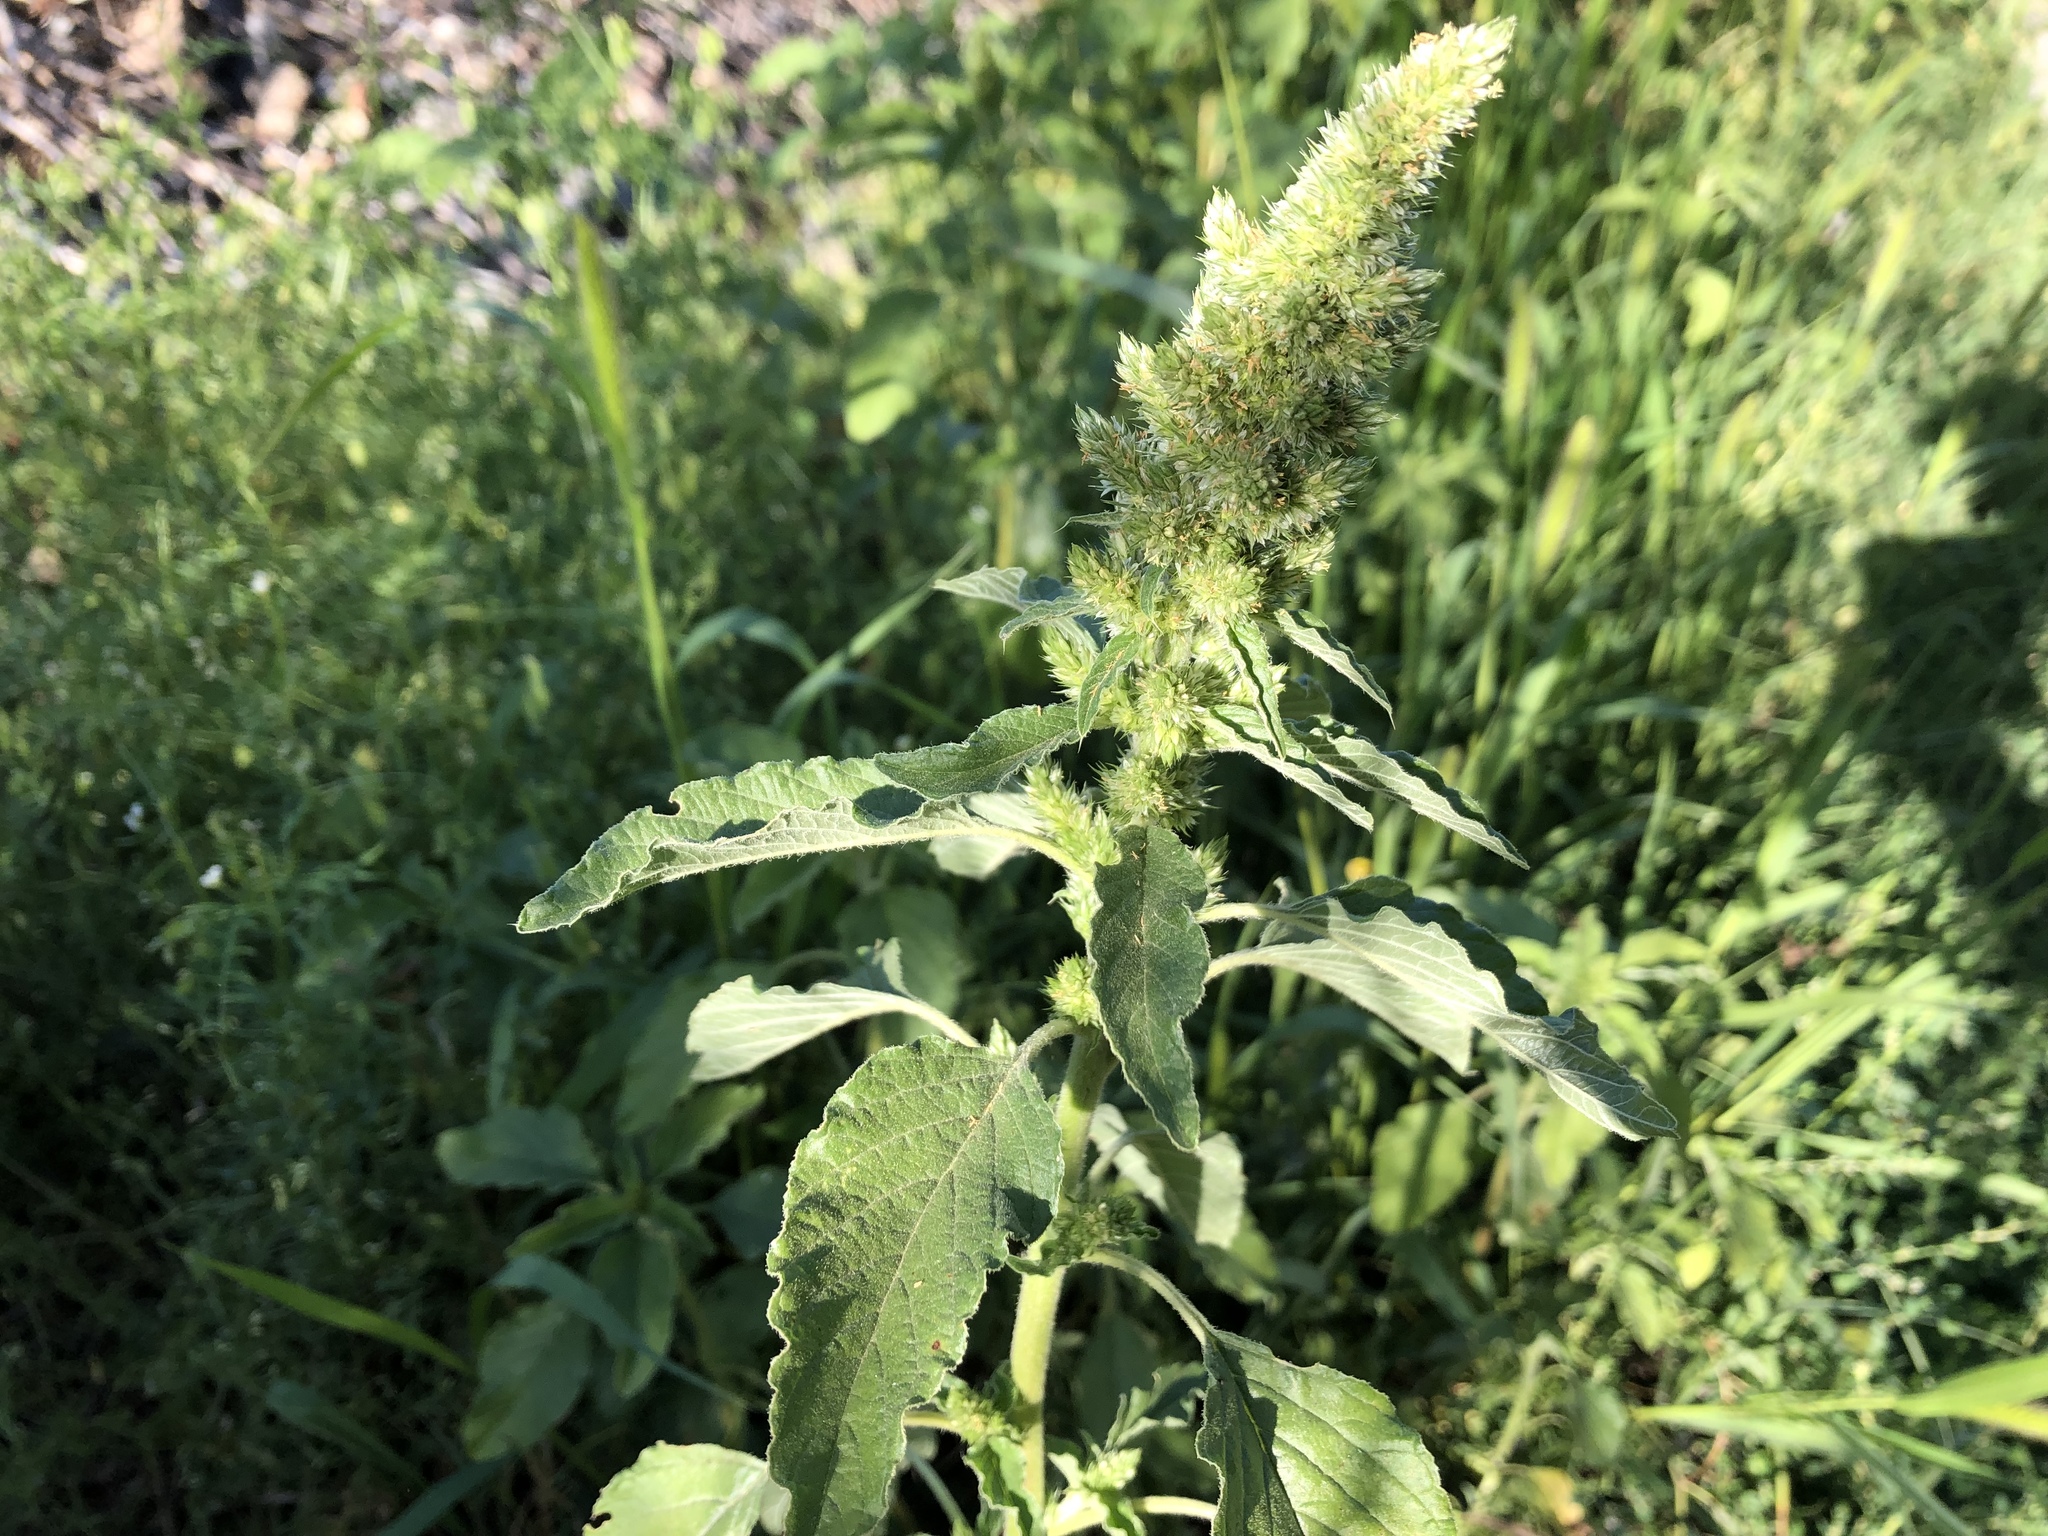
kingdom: Plantae
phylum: Tracheophyta
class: Magnoliopsida
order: Caryophyllales
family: Amaranthaceae
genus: Amaranthus
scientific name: Amaranthus retroflexus
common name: Redroot amaranth
